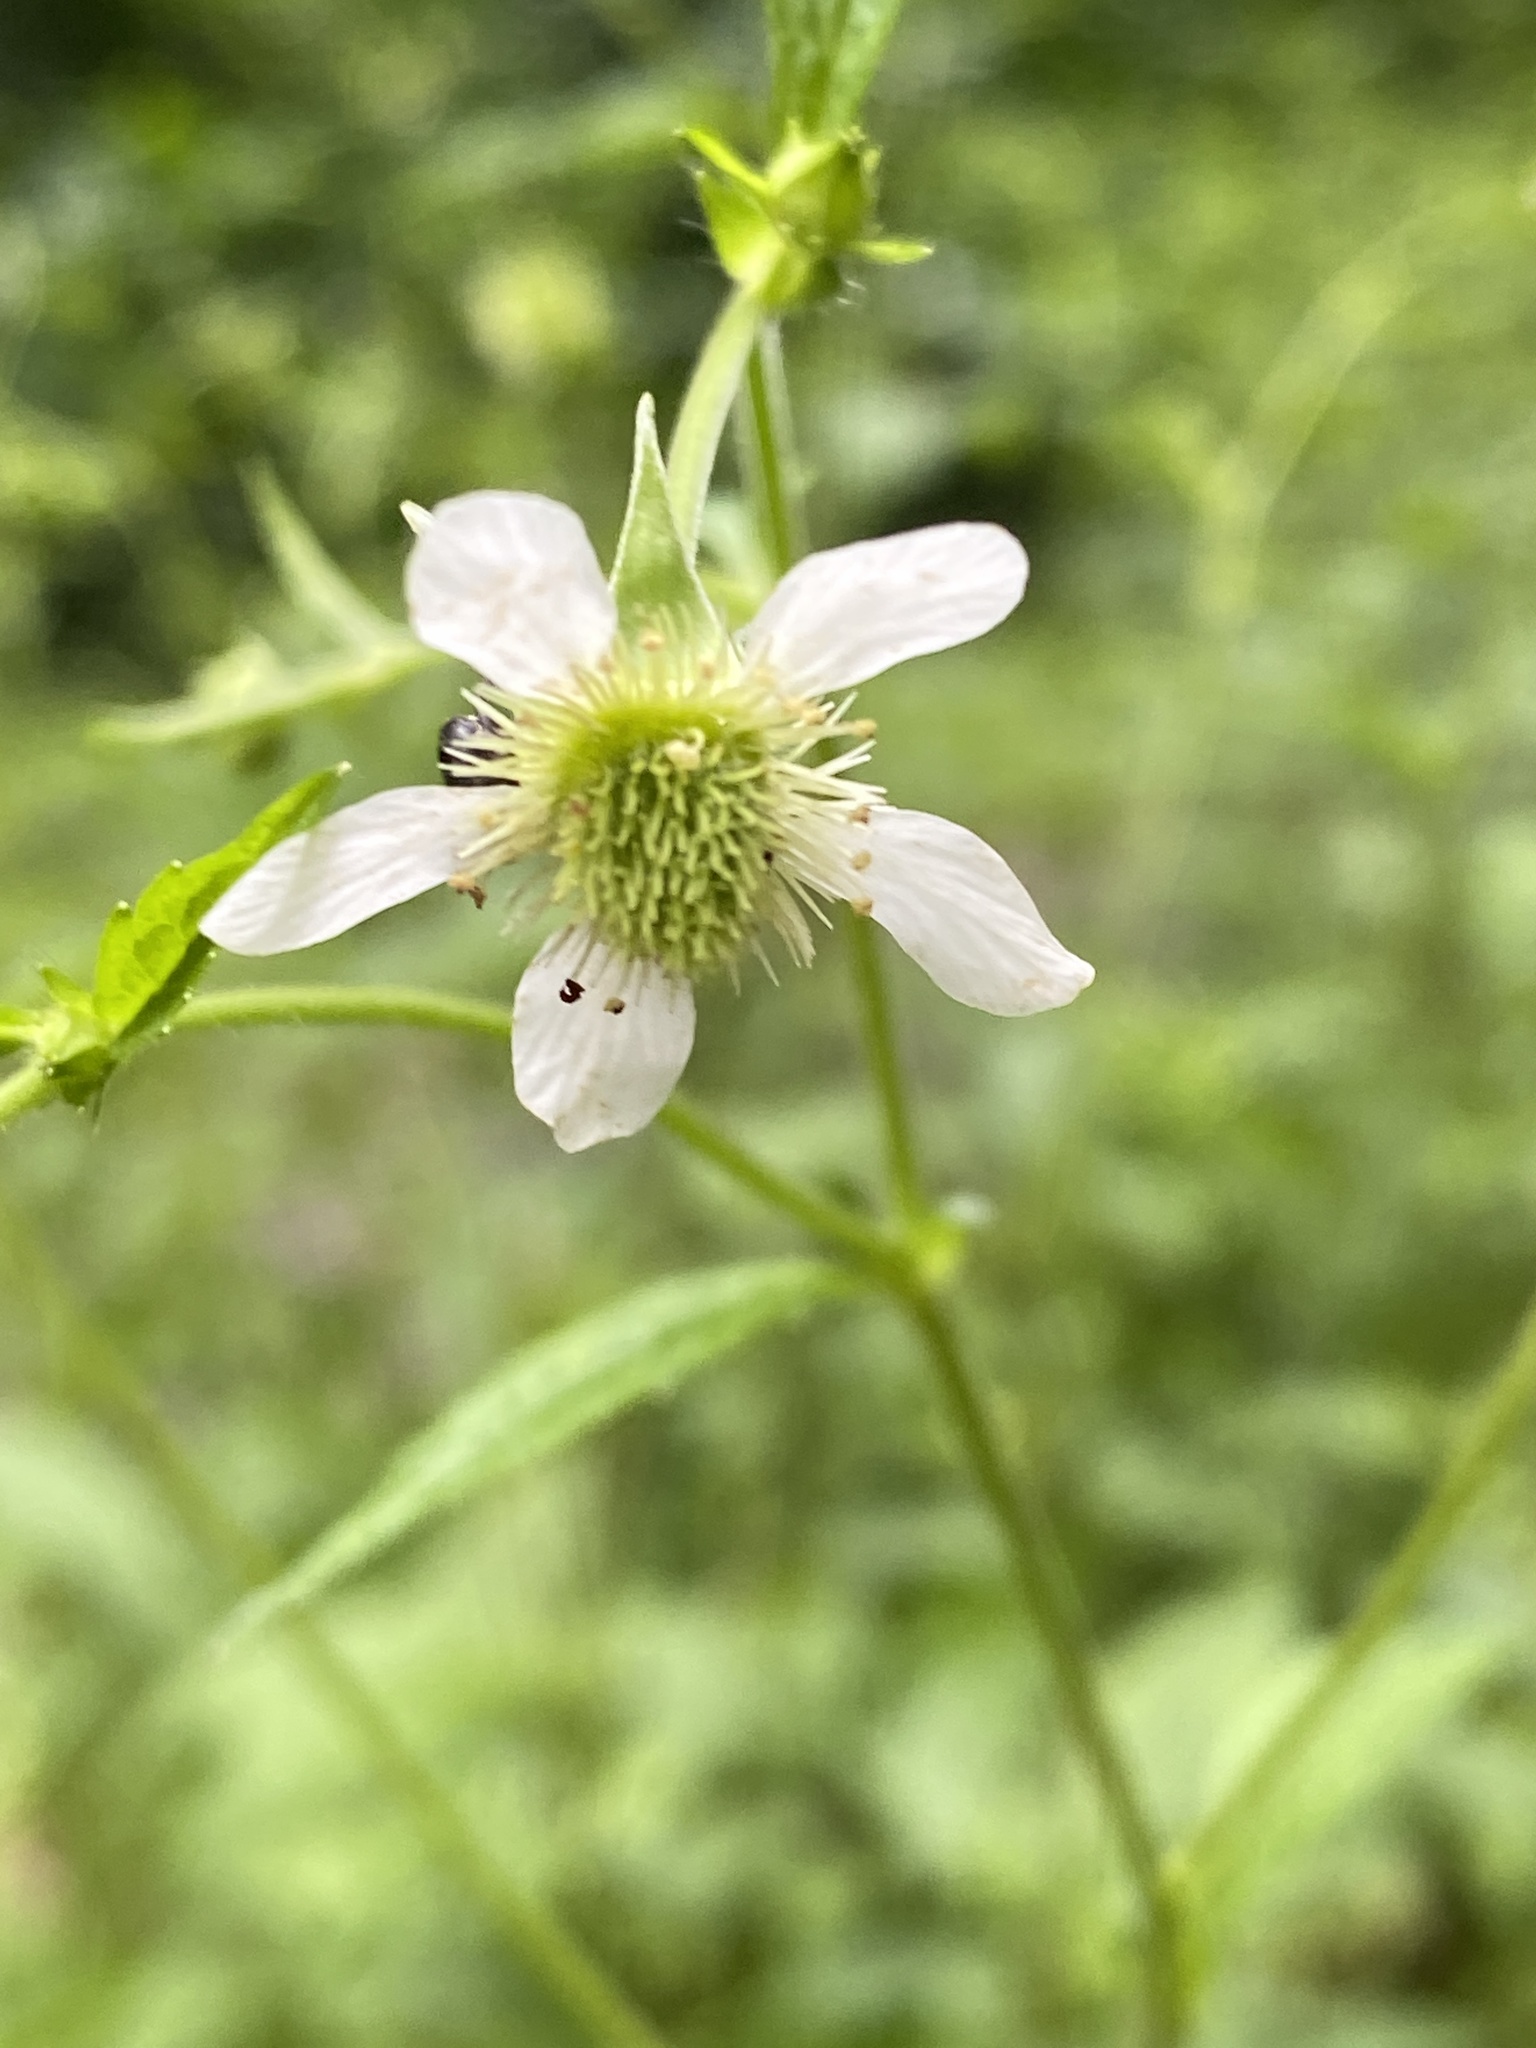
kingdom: Plantae
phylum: Tracheophyta
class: Magnoliopsida
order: Rosales
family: Rosaceae
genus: Geum
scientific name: Geum canadense
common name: White avens
